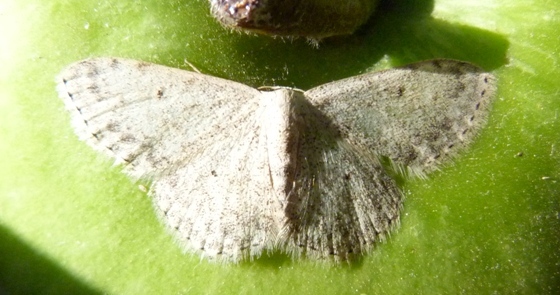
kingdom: Animalia
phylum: Arthropoda
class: Insecta
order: Lepidoptera
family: Geometridae
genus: Scopula
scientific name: Scopula marginepunctata
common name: Mullein wave
